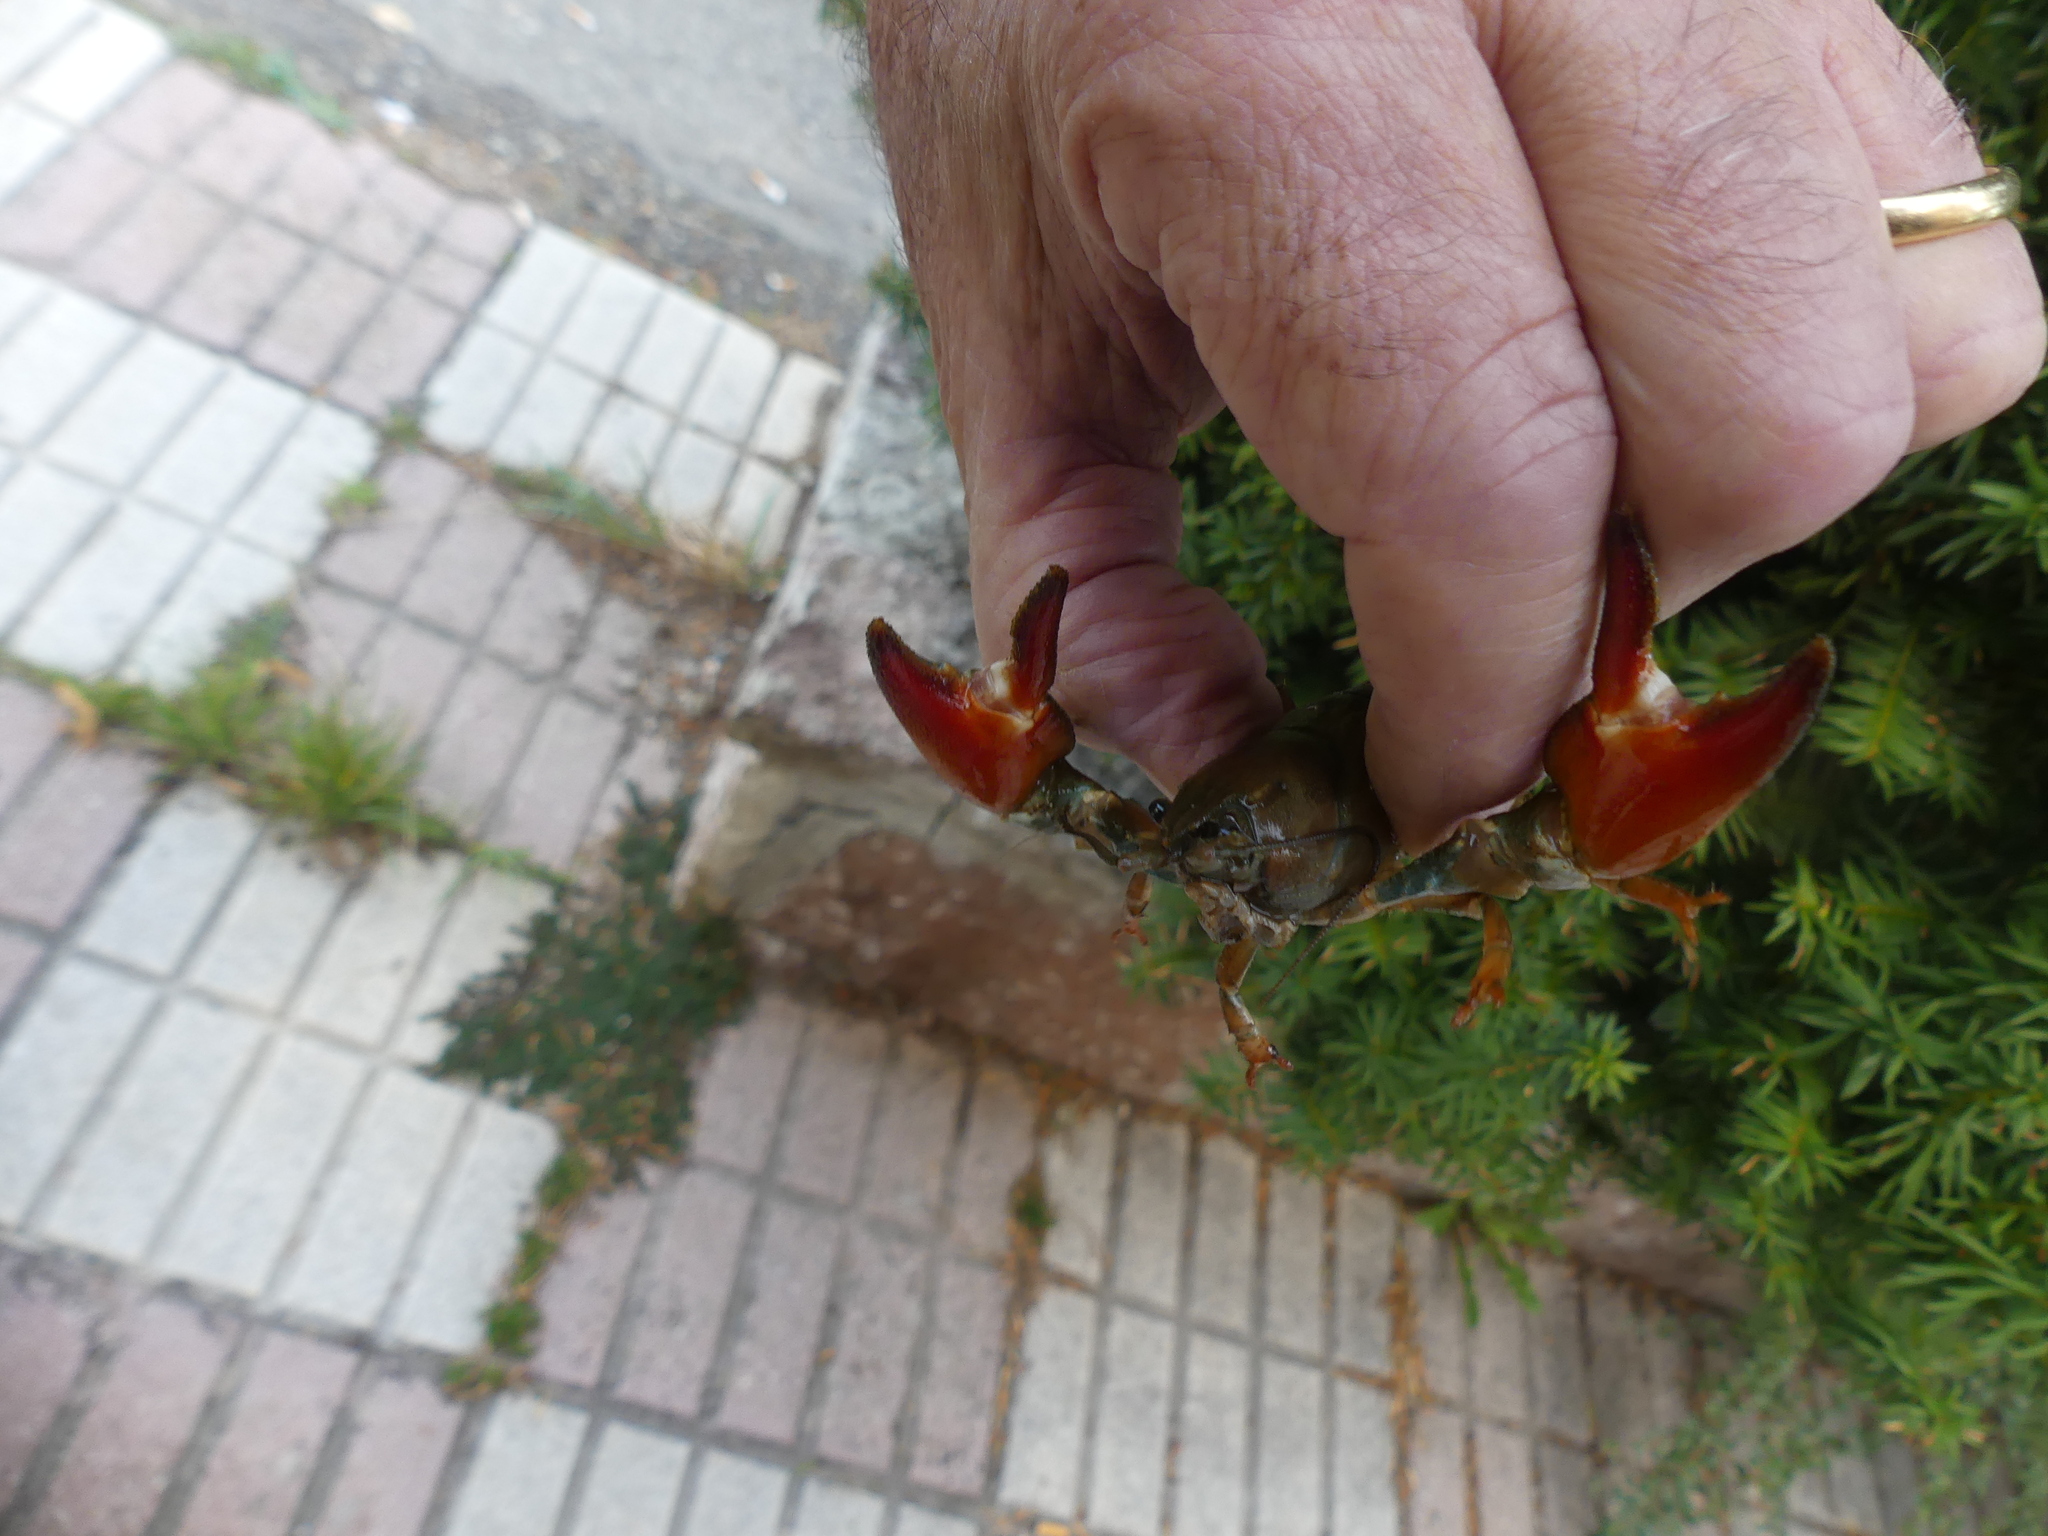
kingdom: Animalia
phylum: Arthropoda
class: Malacostraca
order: Decapoda
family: Astacidae
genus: Pacifastacus
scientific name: Pacifastacus leniusculus
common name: Signal crayfish
